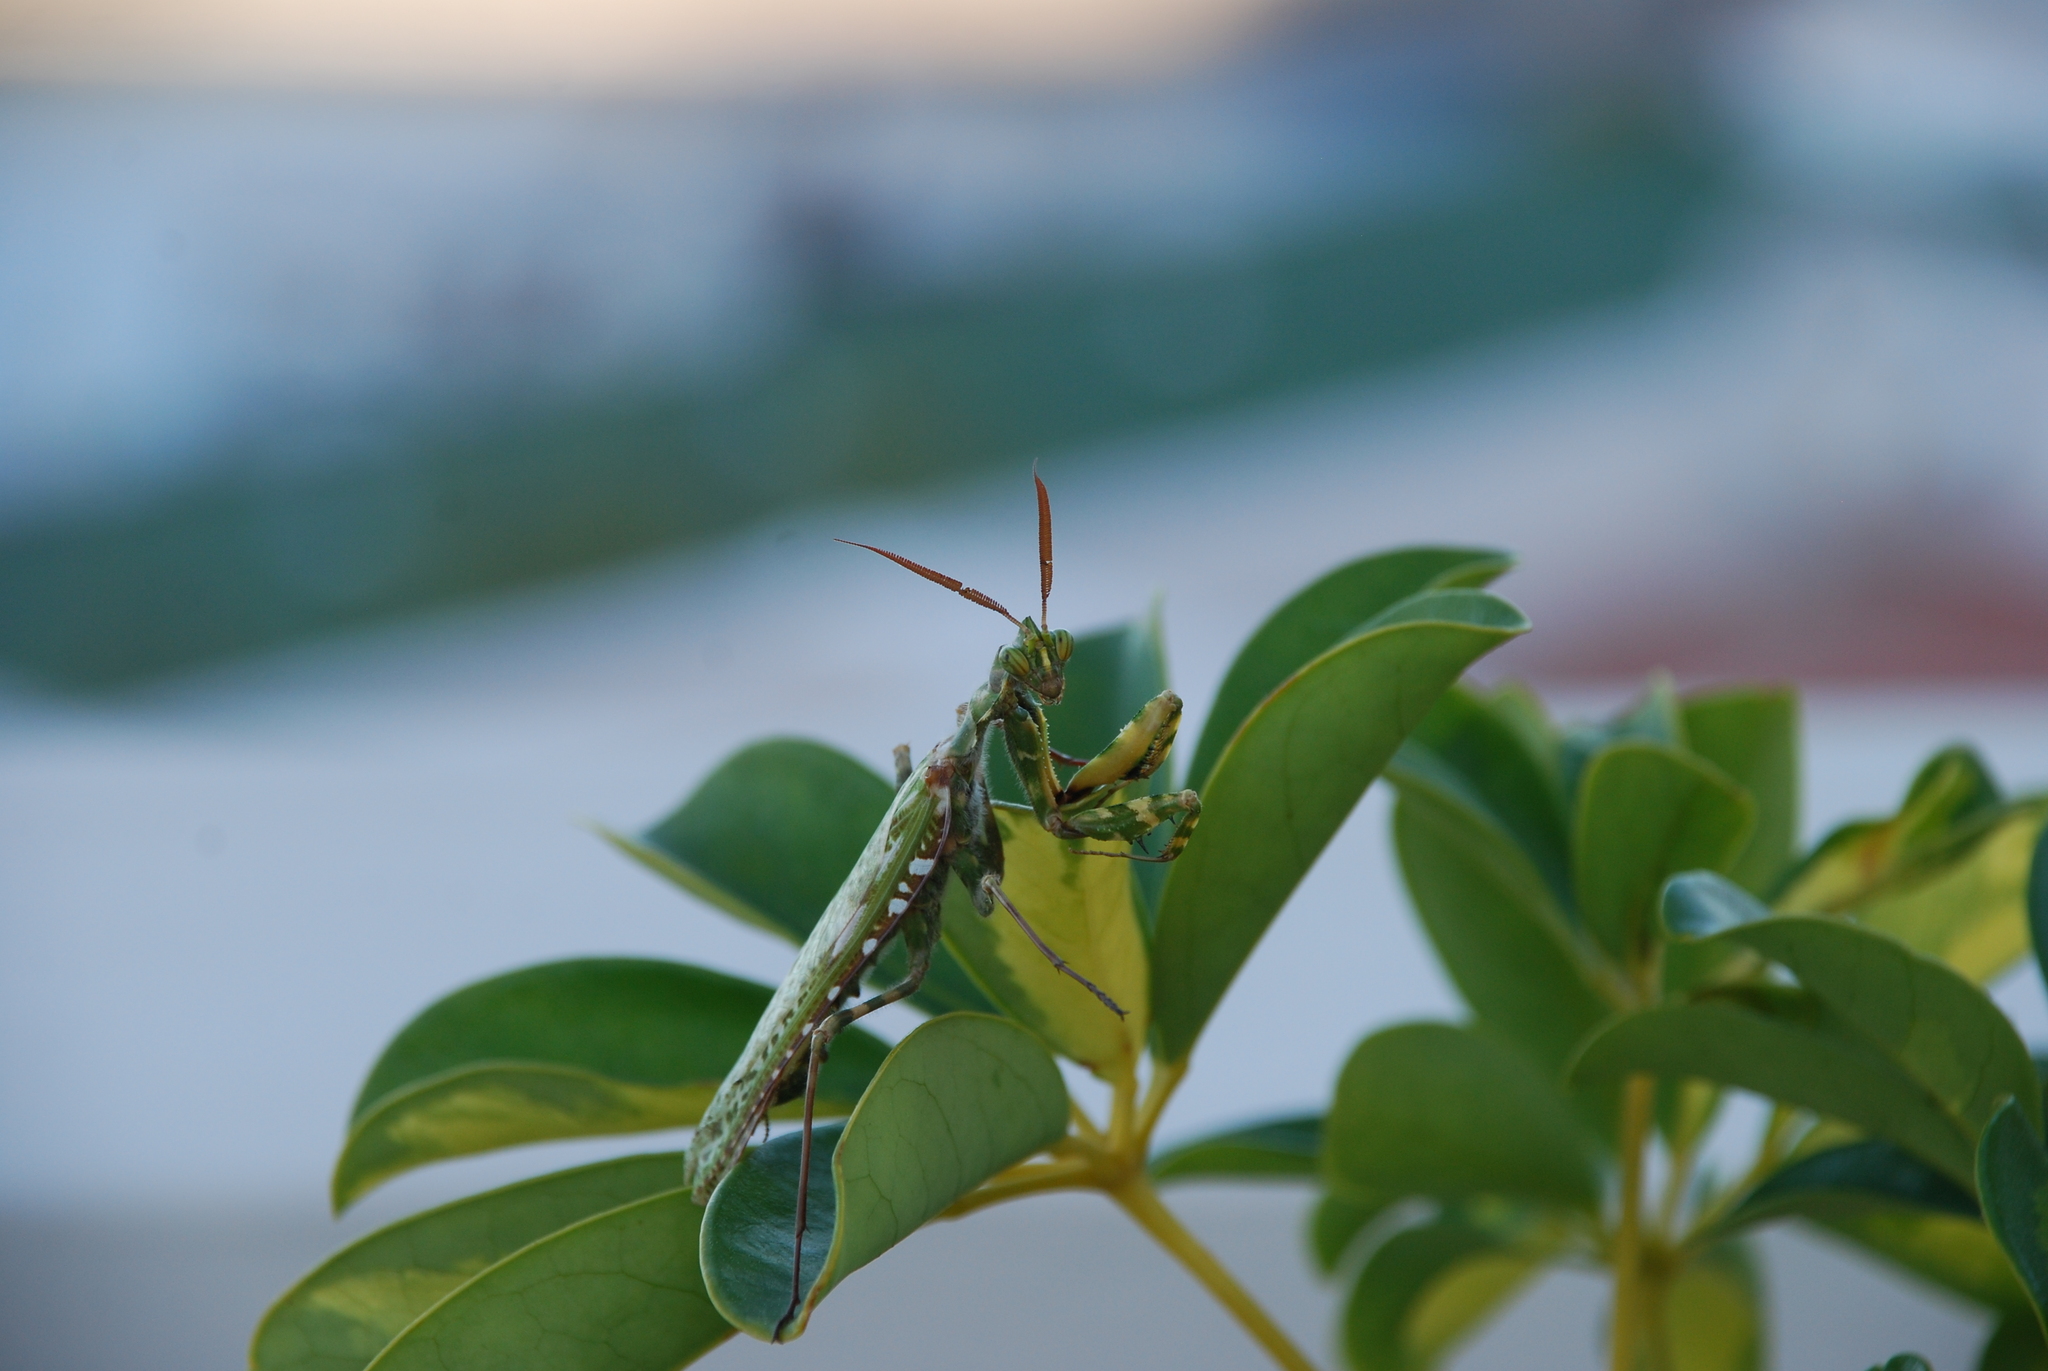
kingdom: Animalia
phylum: Arthropoda
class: Insecta
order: Mantodea
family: Empusidae
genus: Blepharopsis
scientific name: Blepharopsis mendica
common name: Devil's flower mantis
